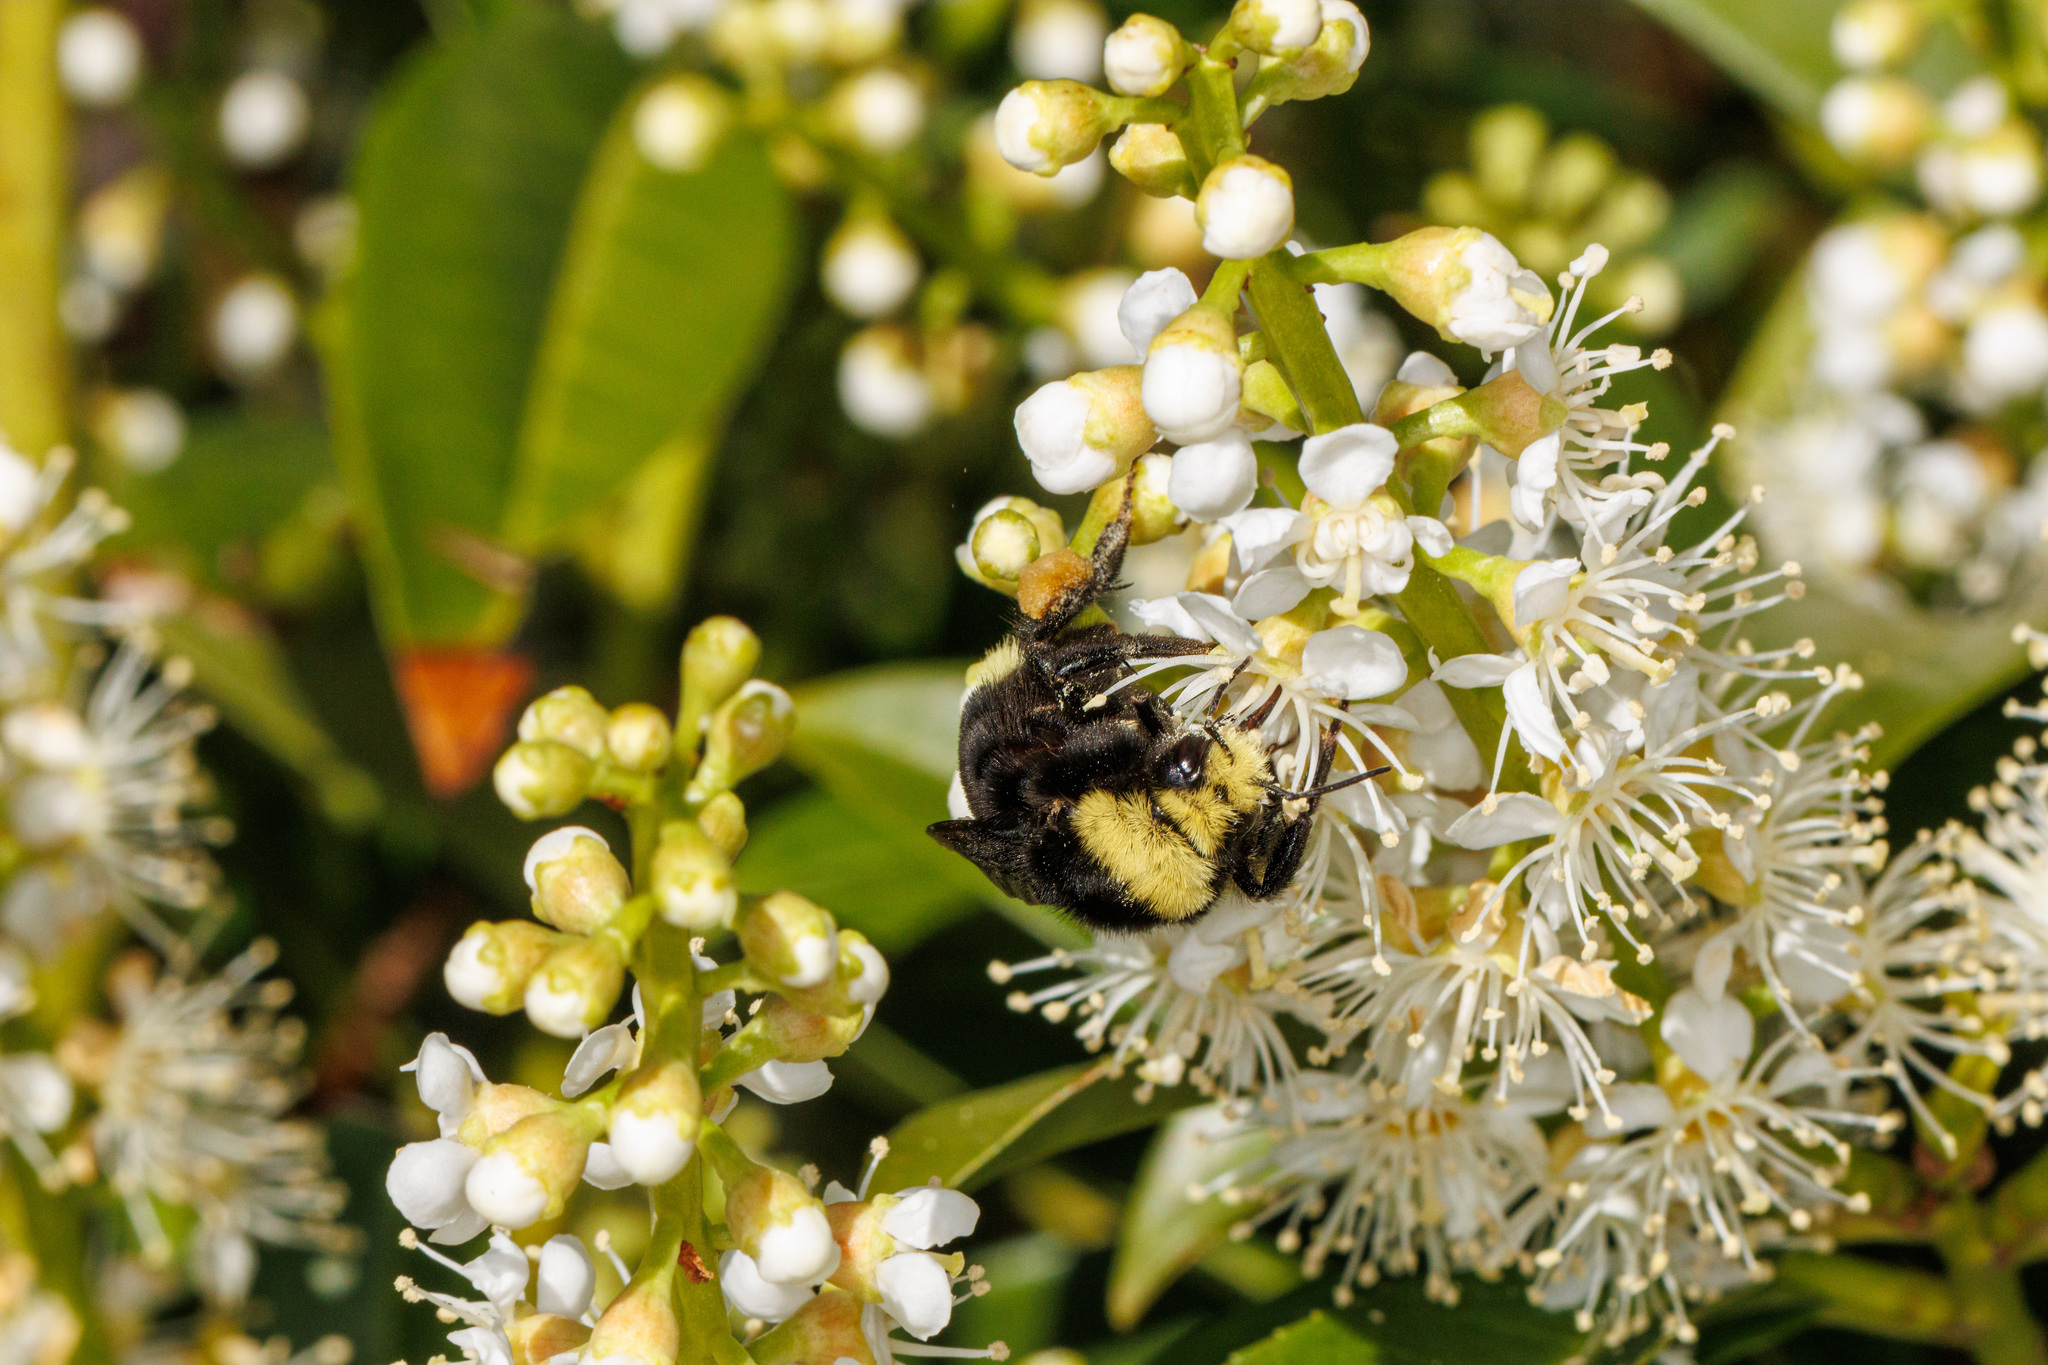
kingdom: Animalia
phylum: Arthropoda
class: Insecta
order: Hymenoptera
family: Apidae
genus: Bombus
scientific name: Bombus vosnesenskii
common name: Vosnesensky bumble bee
